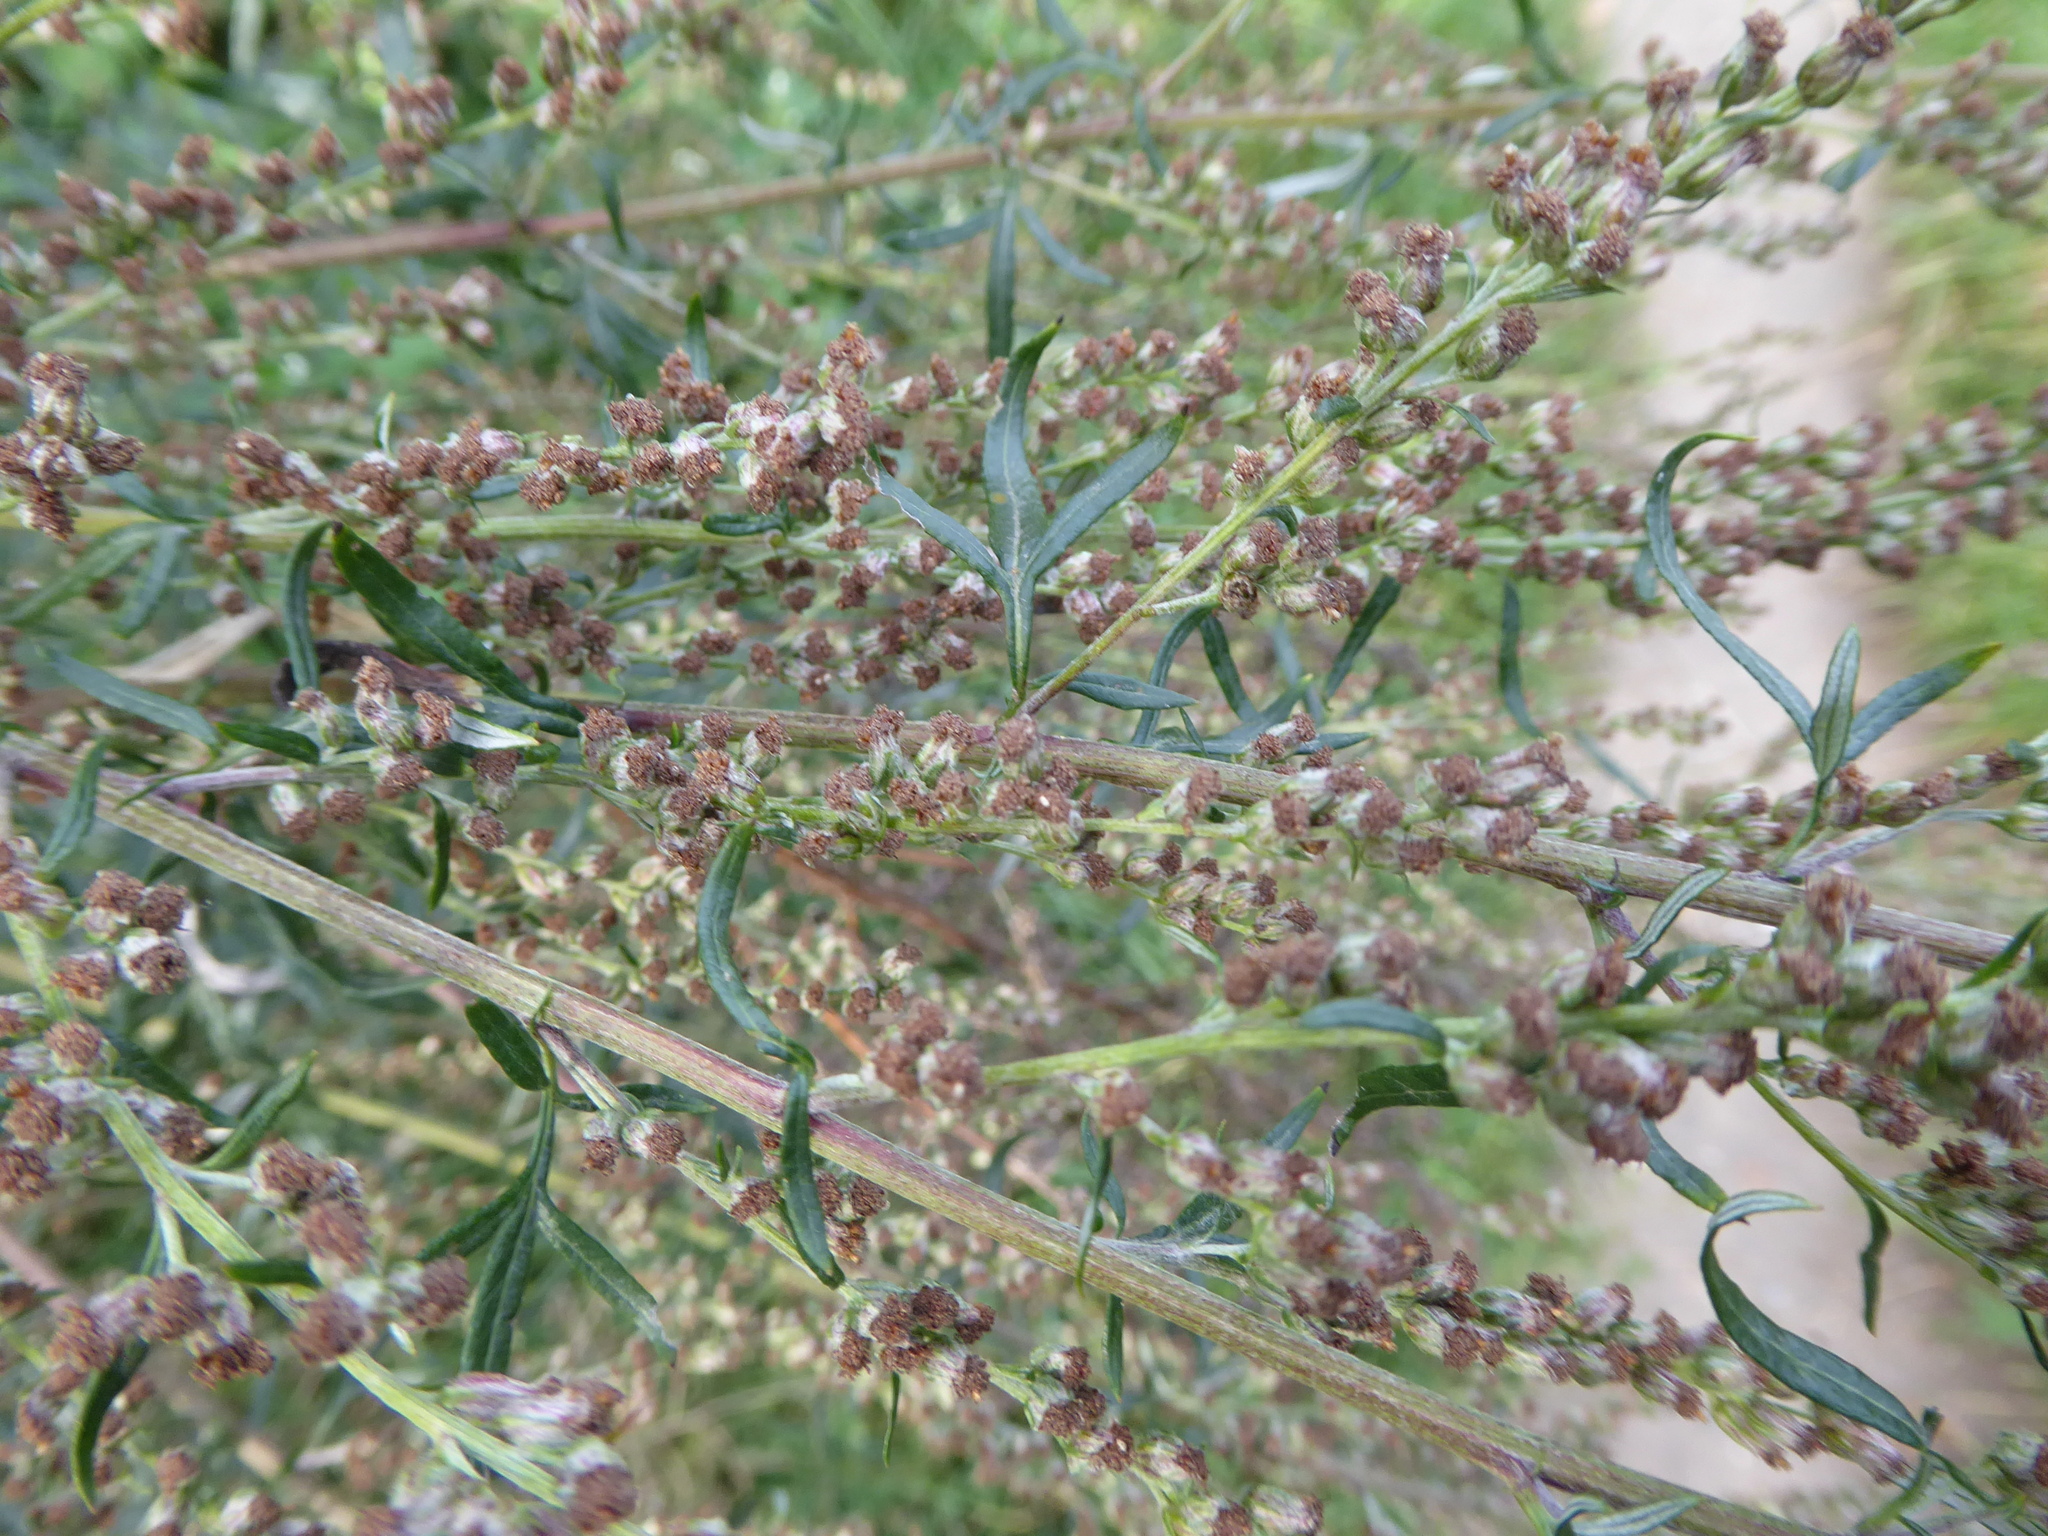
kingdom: Plantae
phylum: Tracheophyta
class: Magnoliopsida
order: Asterales
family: Asteraceae
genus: Artemisia
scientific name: Artemisia vulgaris
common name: Mugwort
